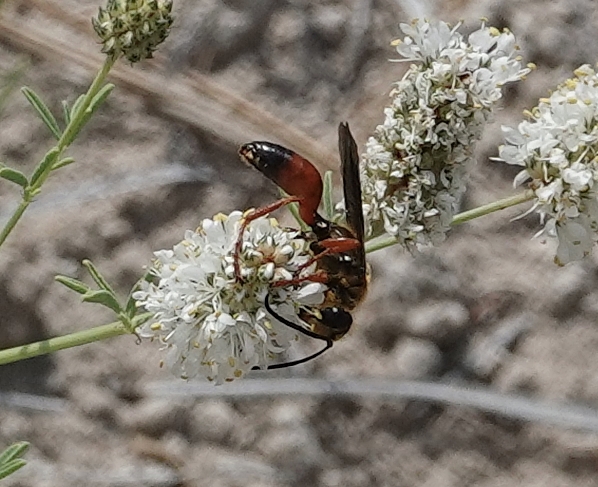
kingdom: Animalia
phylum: Arthropoda
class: Insecta
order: Hymenoptera
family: Sphecidae
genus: Sphex
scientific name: Sphex ichneumoneus
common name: Great golden digger wasp
